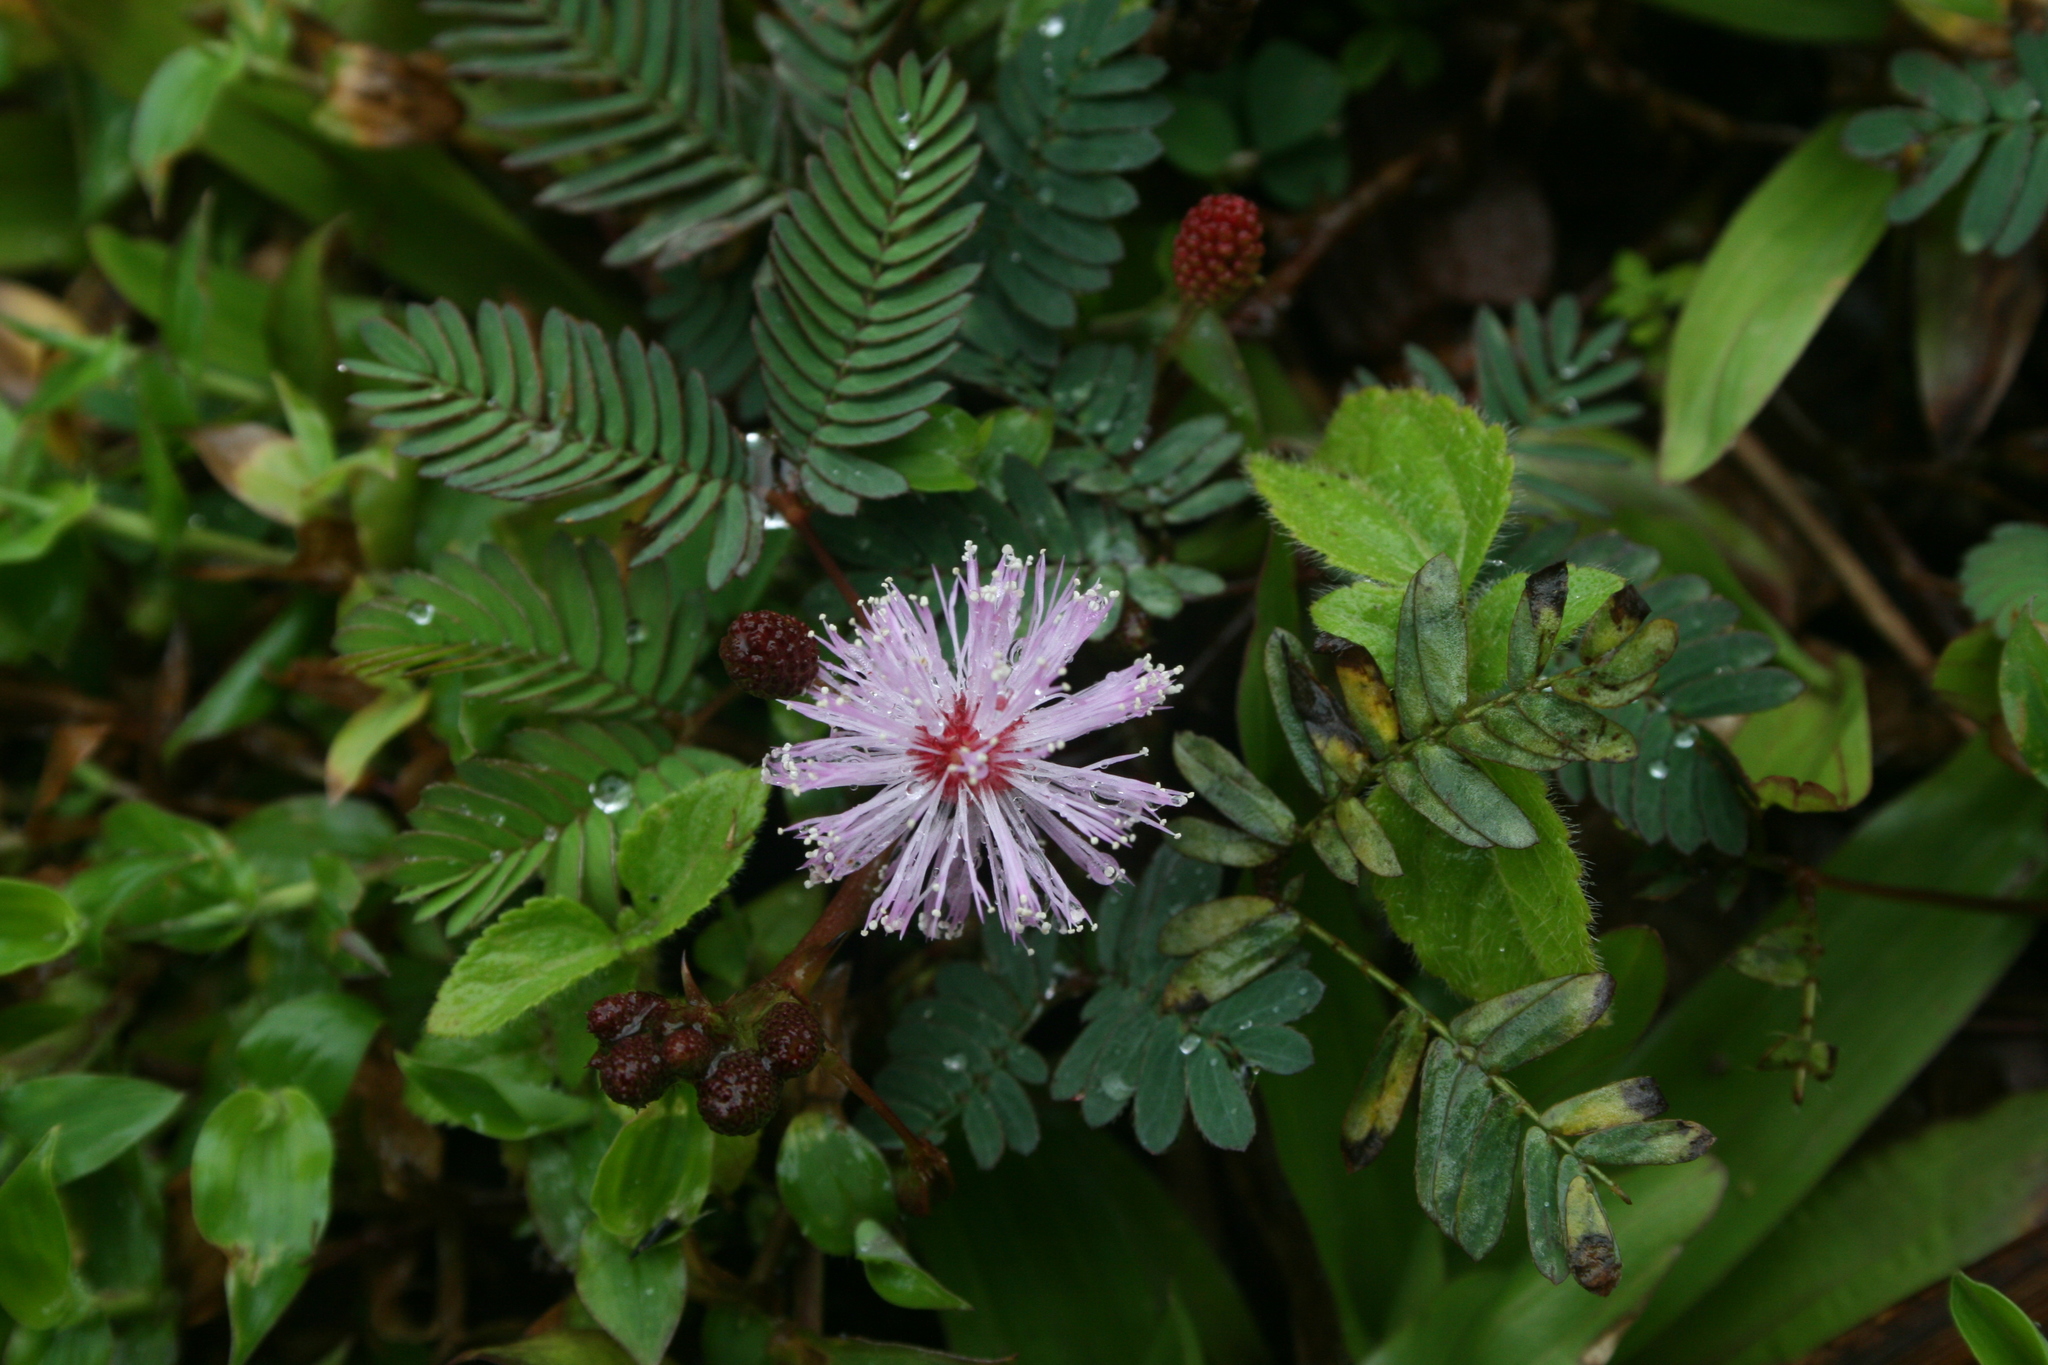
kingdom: Plantae
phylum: Tracheophyta
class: Magnoliopsida
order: Fabales
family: Fabaceae
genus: Mimosa
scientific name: Mimosa pudica
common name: Sensitive plant
